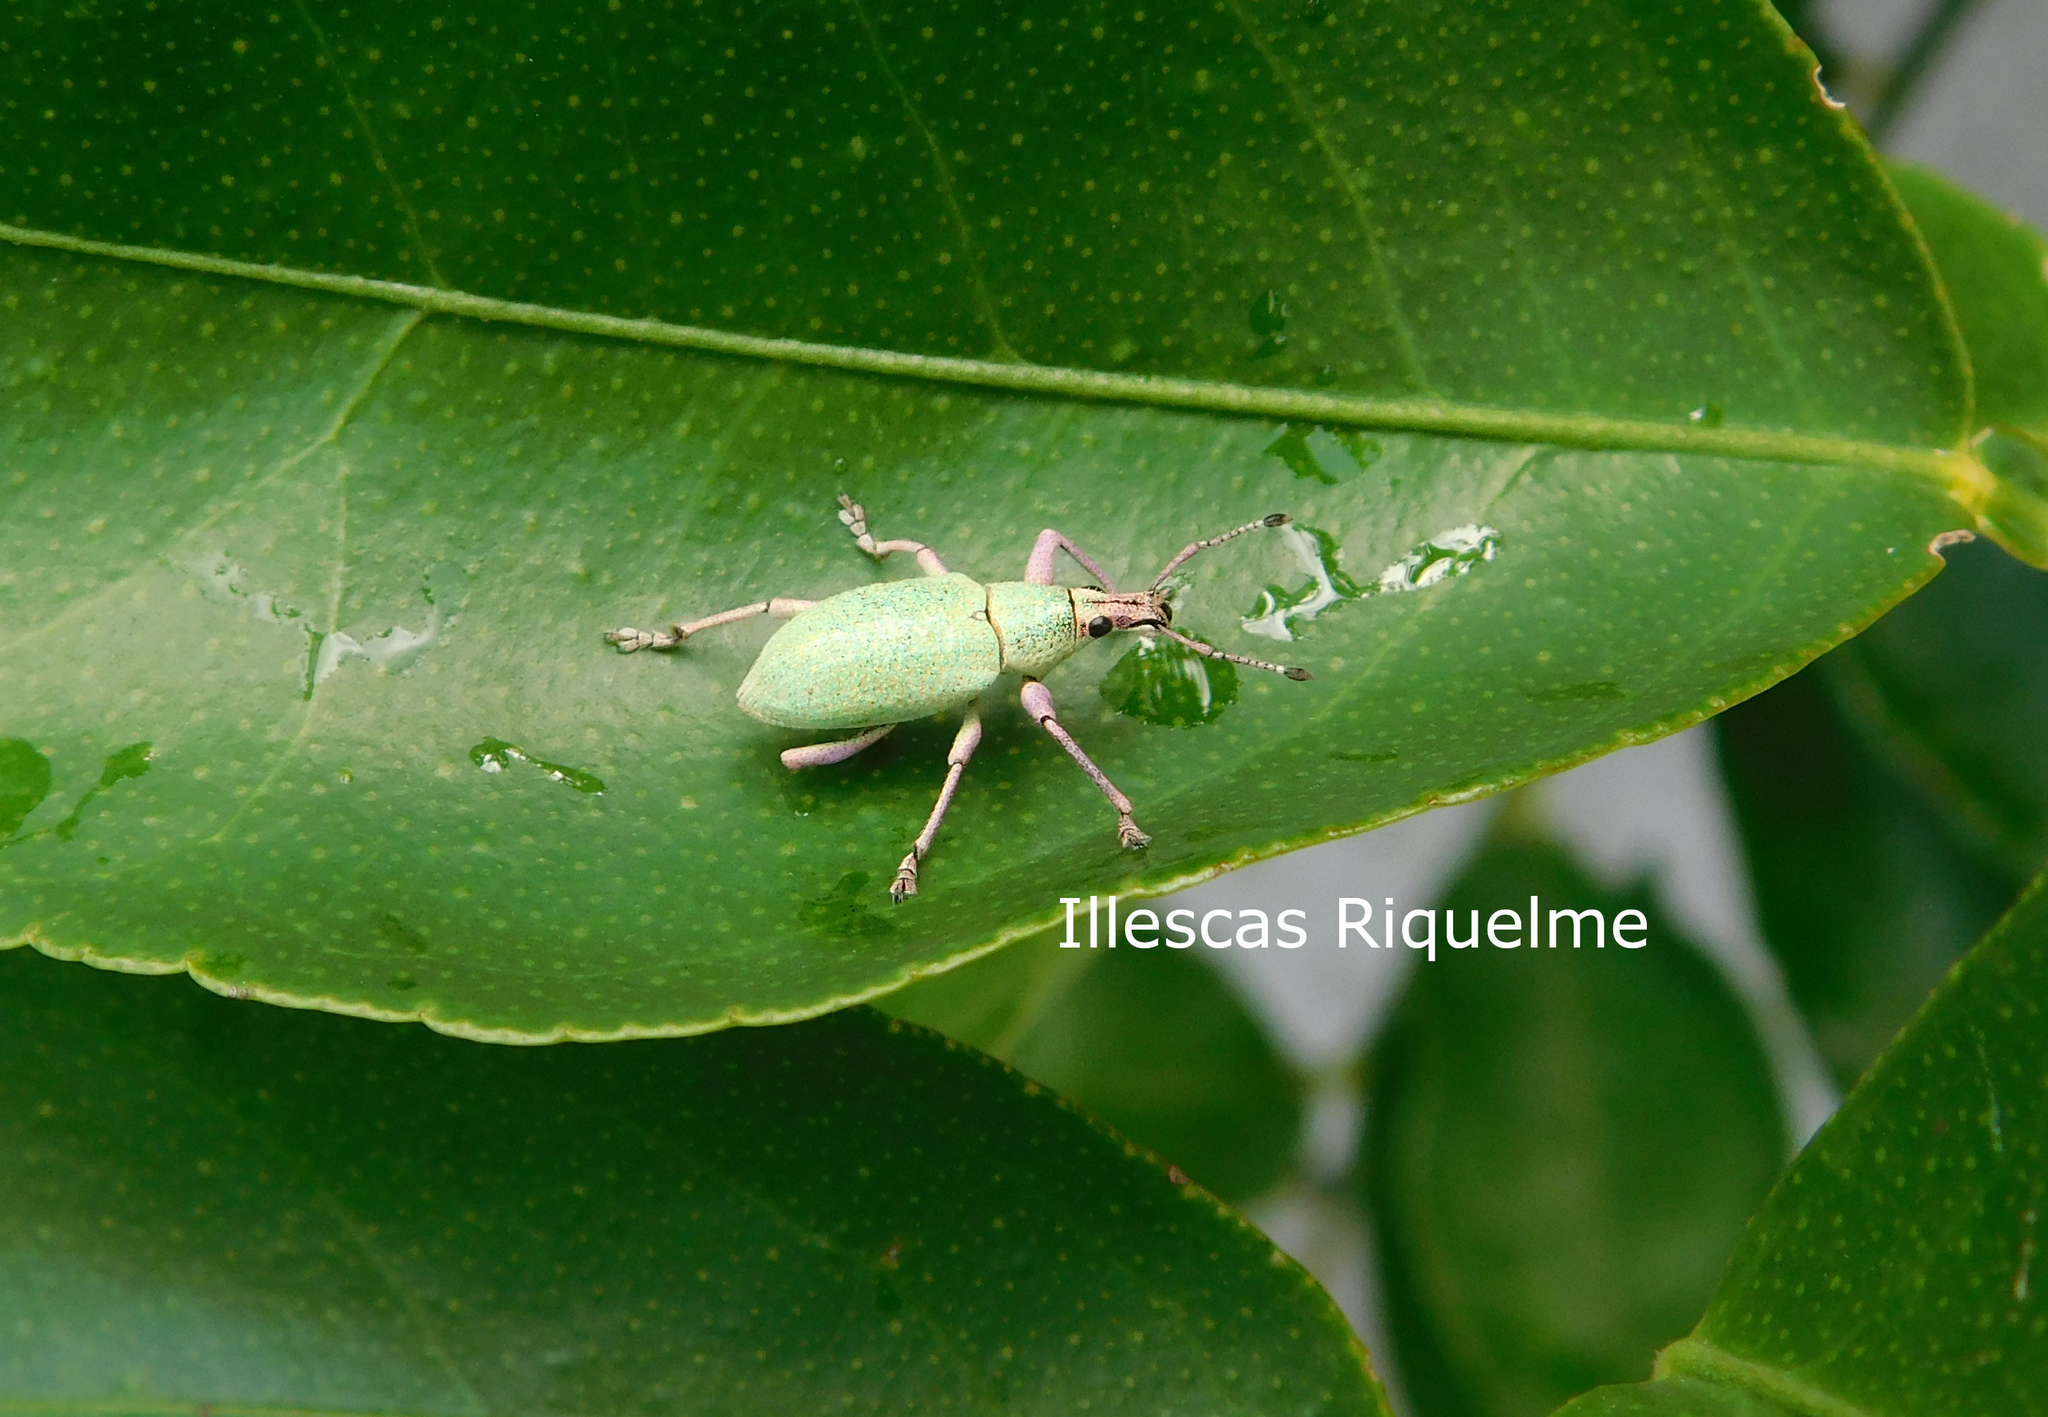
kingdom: Animalia
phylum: Arthropoda
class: Insecta
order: Coleoptera
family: Curculionidae
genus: Exophthalmus
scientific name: Exophthalmus opulentus
